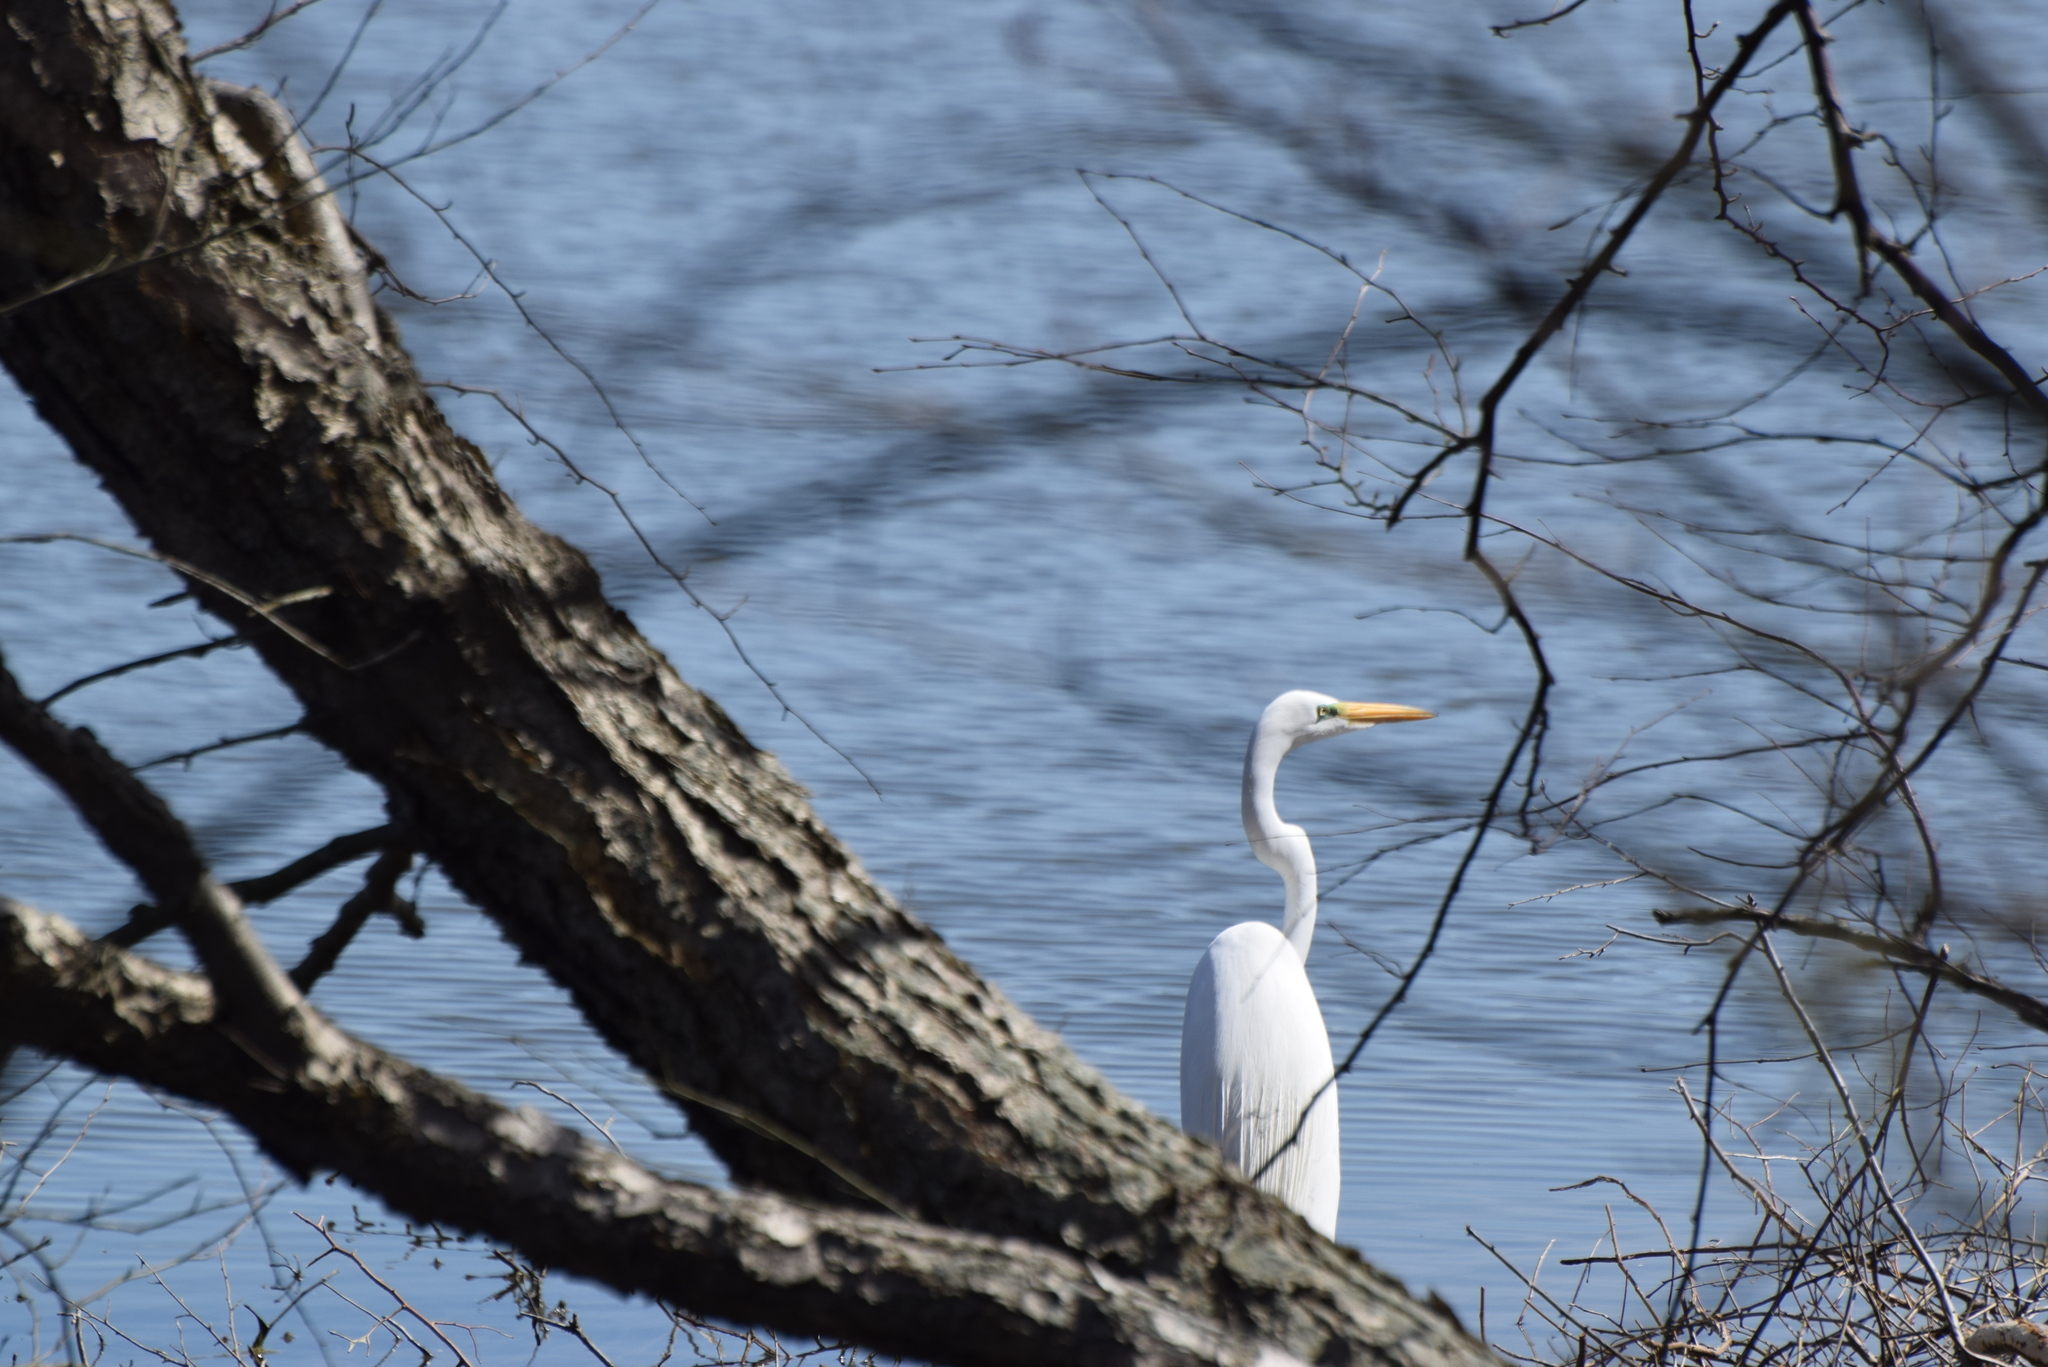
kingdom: Animalia
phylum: Chordata
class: Aves
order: Pelecaniformes
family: Ardeidae
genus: Ardea
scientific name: Ardea alba
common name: Great egret
